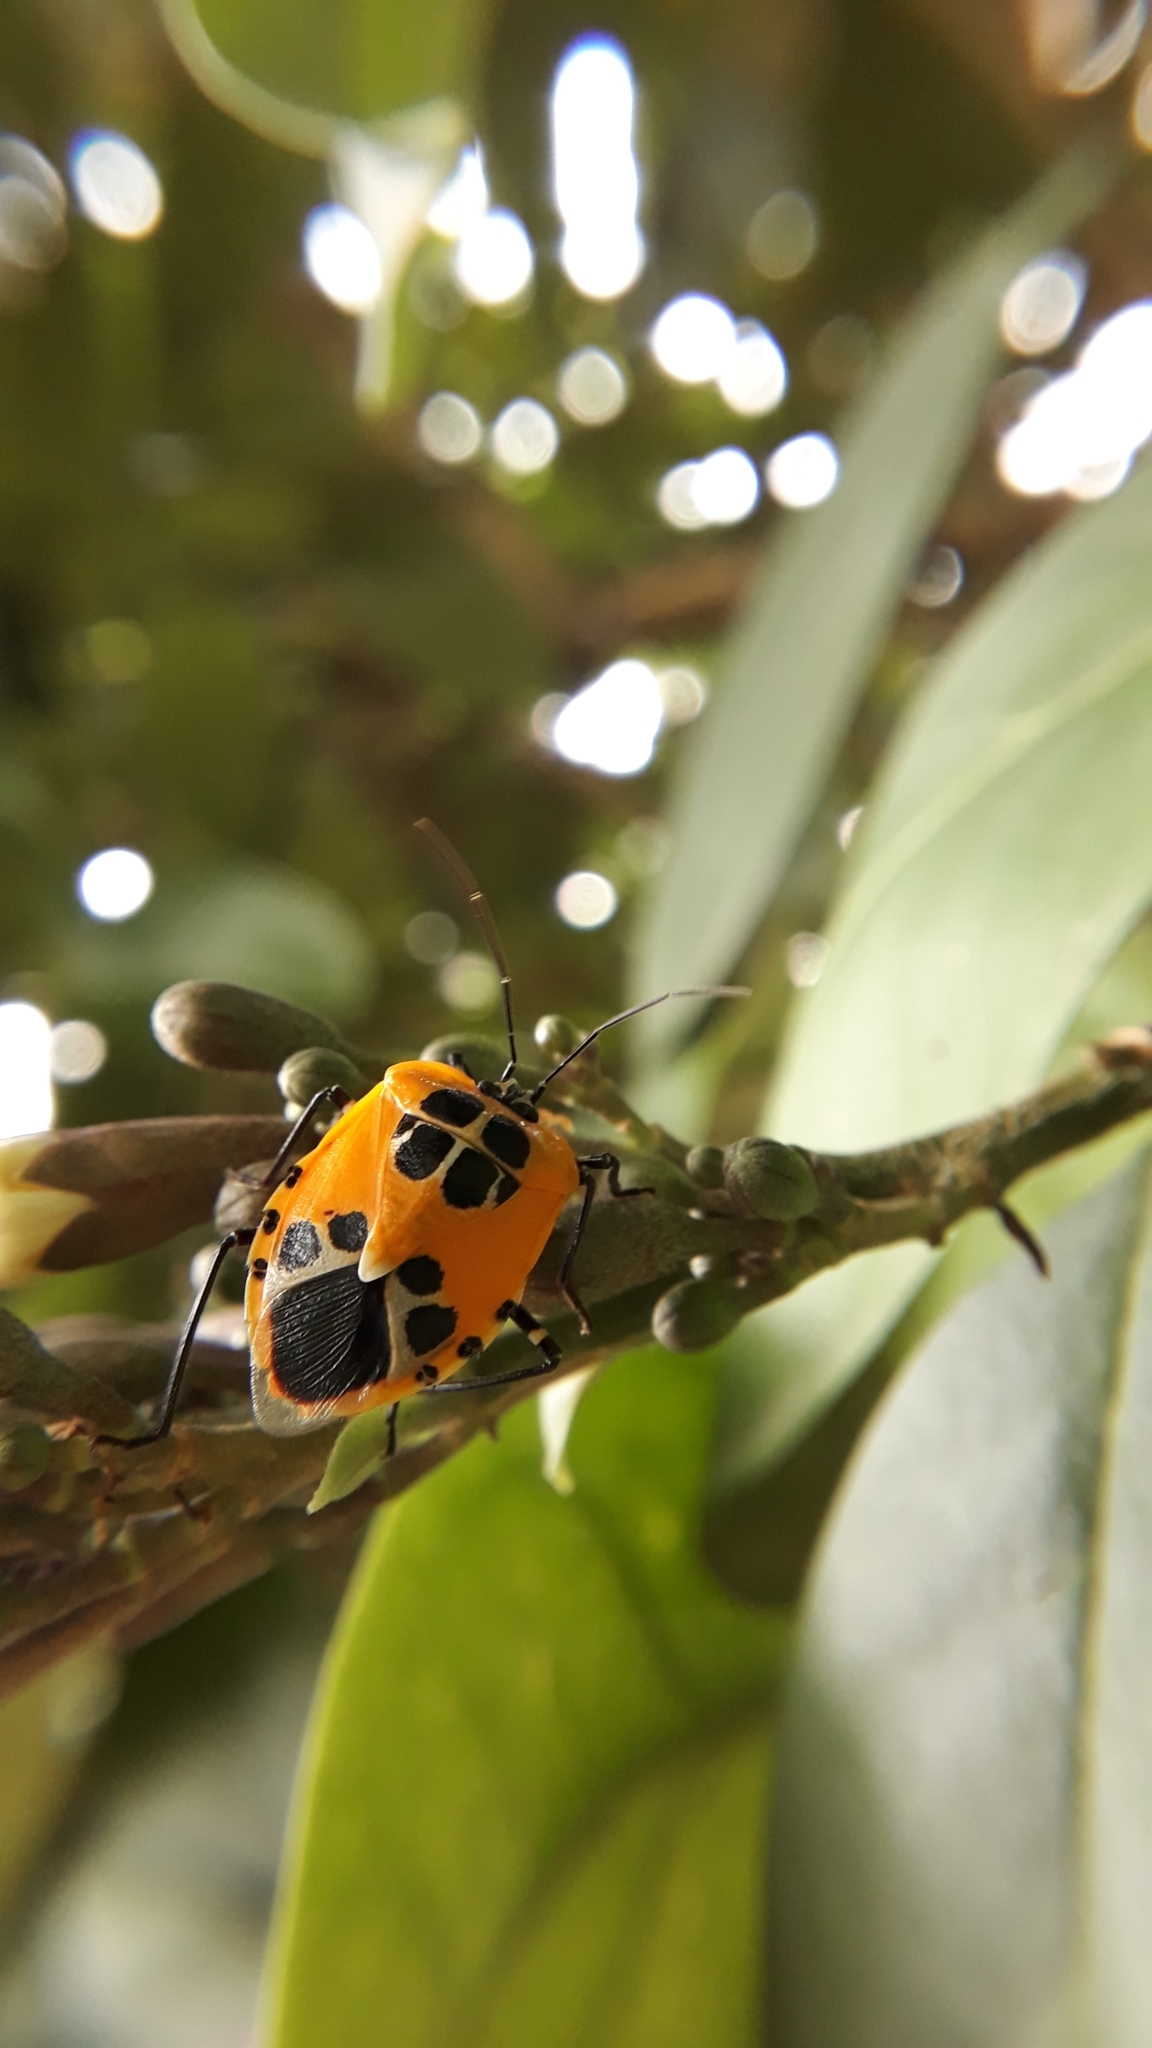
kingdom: Animalia
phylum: Arthropoda
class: Insecta
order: Hemiptera
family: Pentatomidae
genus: Runibia
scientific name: Runibia decorata
